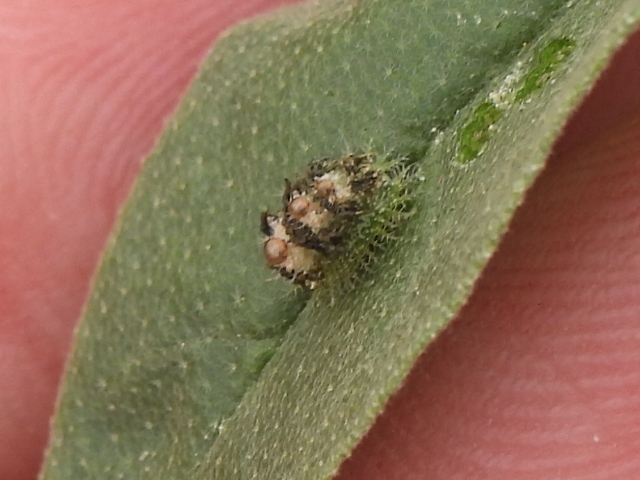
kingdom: Animalia
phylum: Arthropoda
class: Insecta
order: Coleoptera
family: Chrysomelidae
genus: Gratiana
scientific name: Gratiana pallidula
